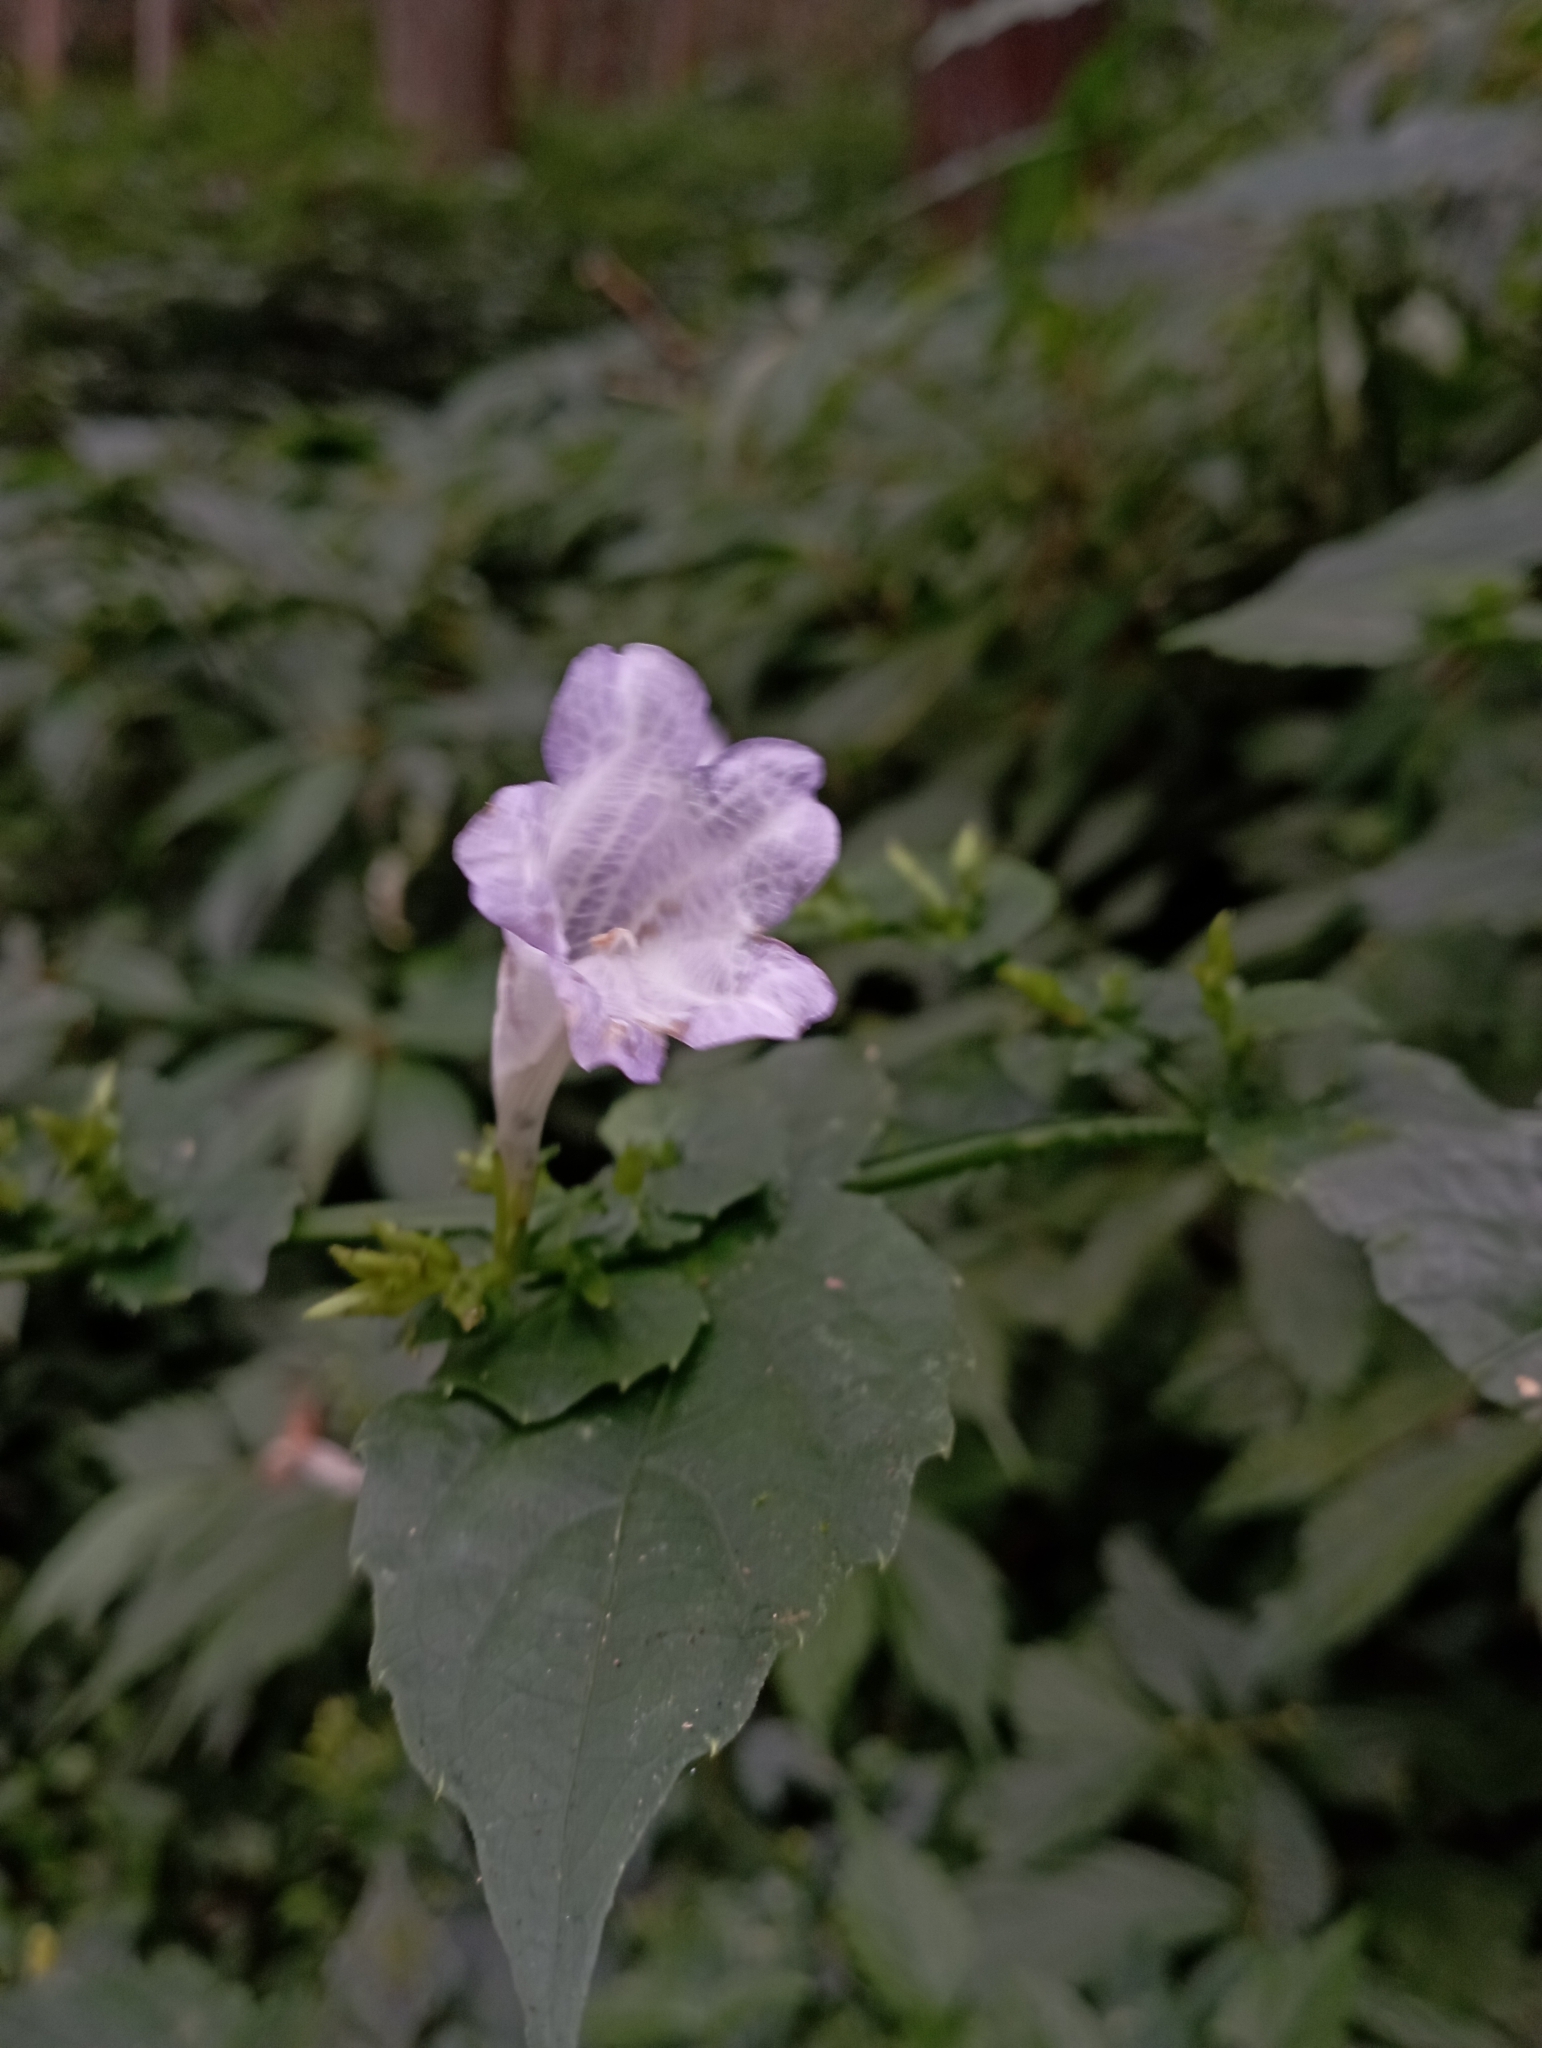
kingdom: Plantae
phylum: Tracheophyta
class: Magnoliopsida
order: Lamiales
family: Acanthaceae
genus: Strobilanthes
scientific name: Strobilanthes flexicaulis
